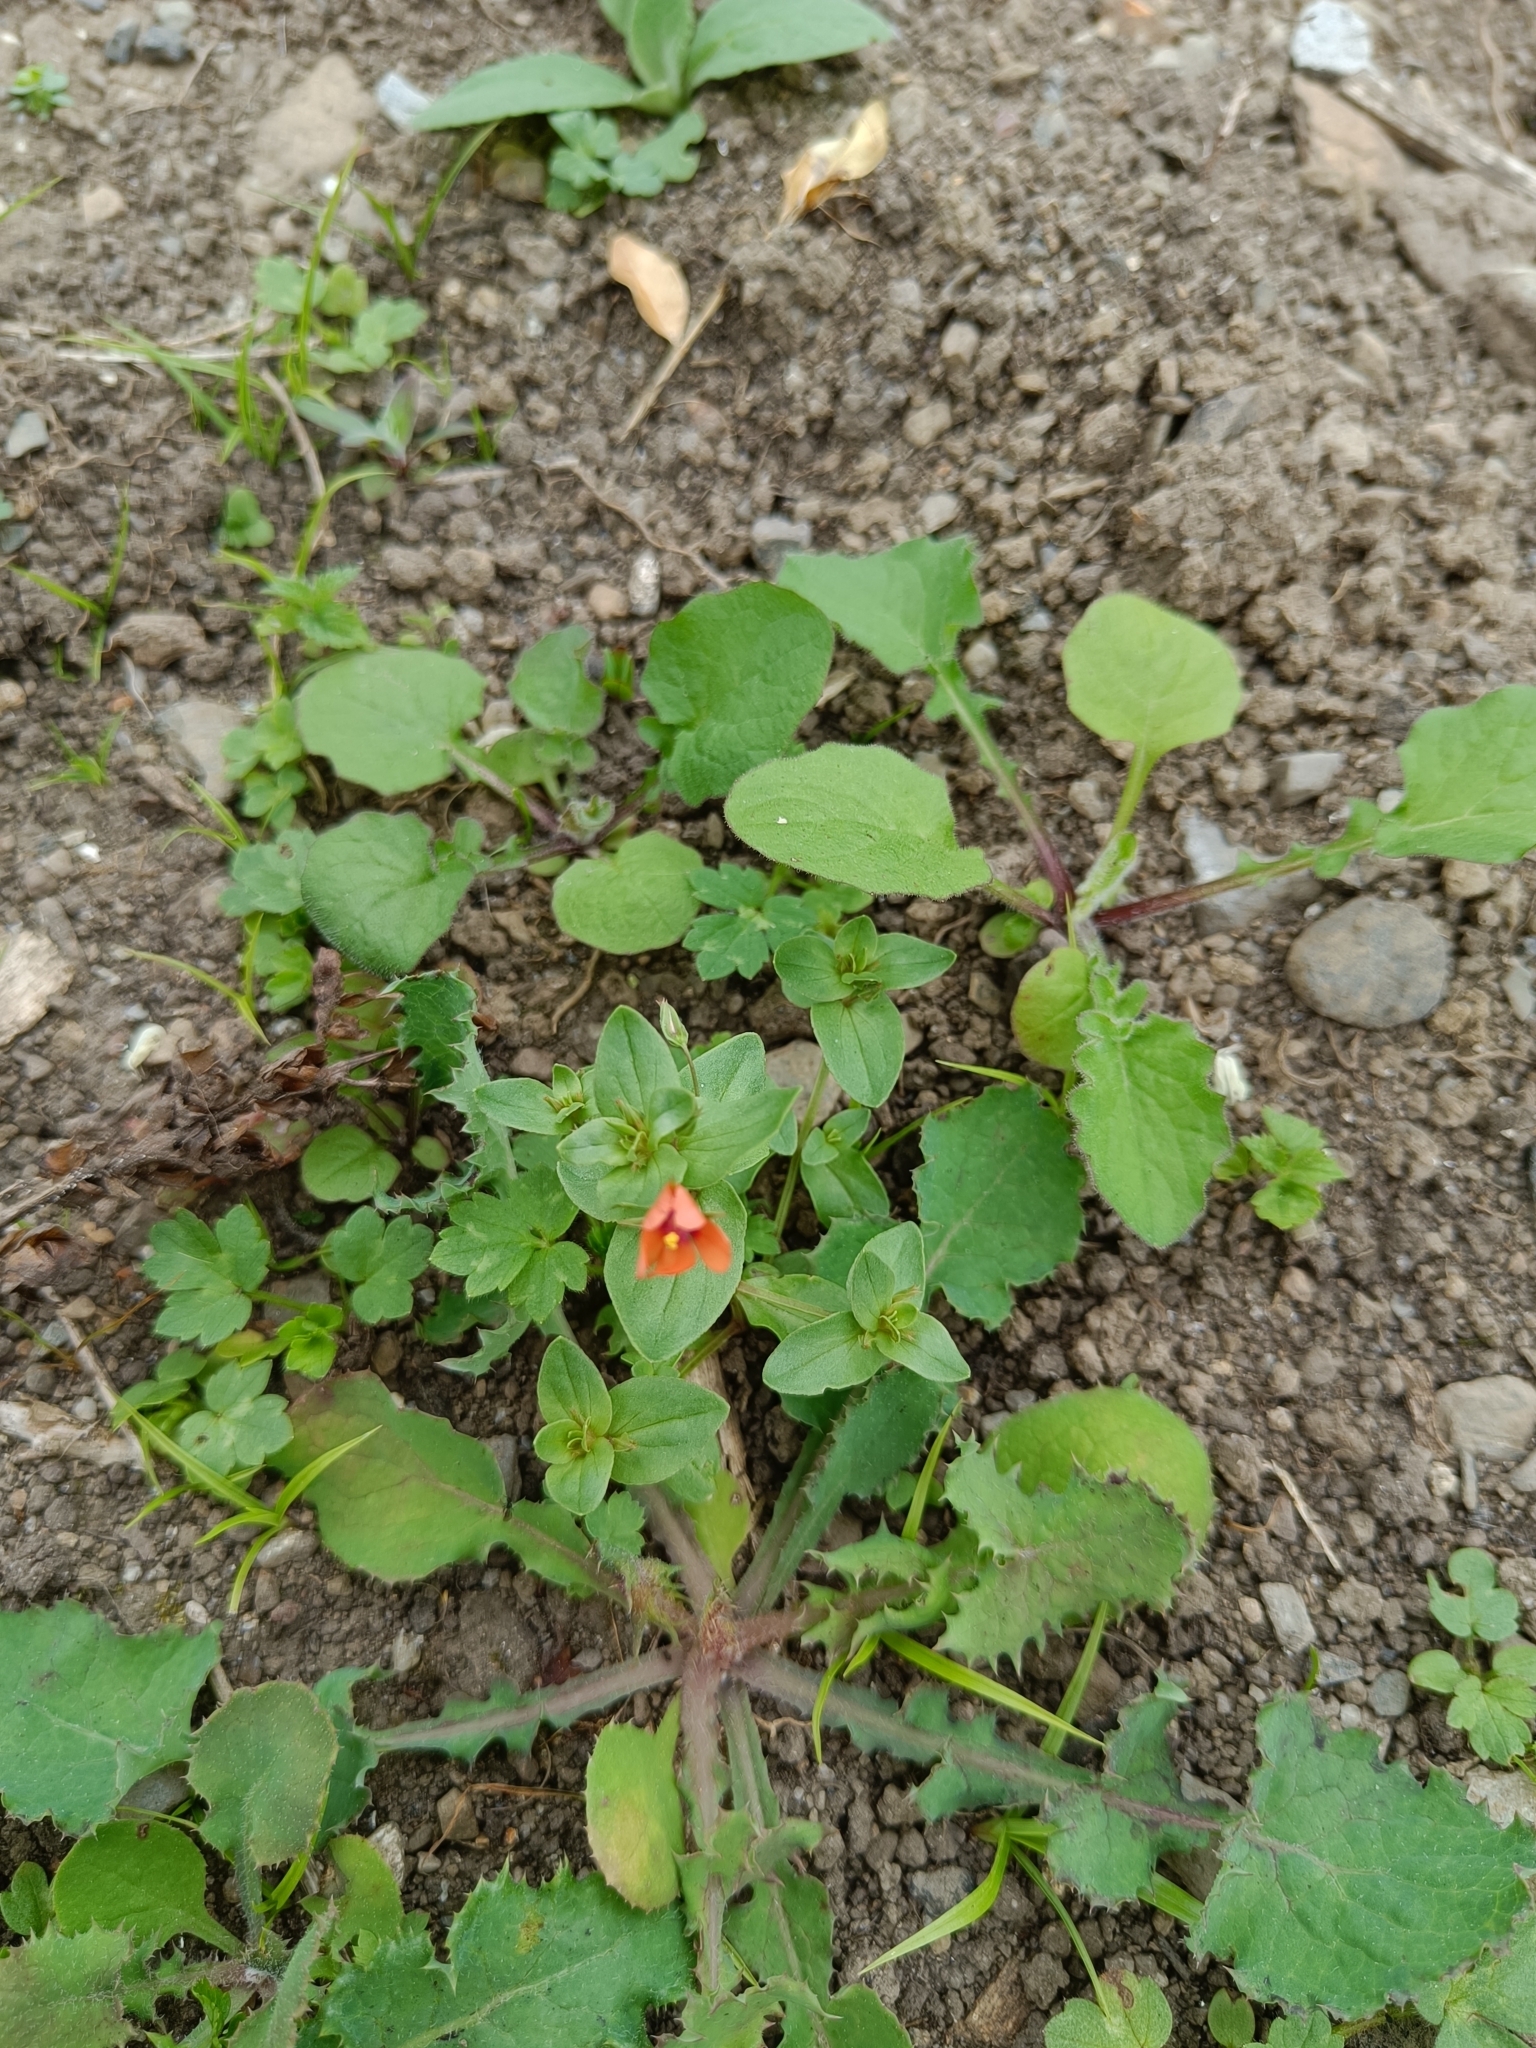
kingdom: Plantae
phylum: Tracheophyta
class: Magnoliopsida
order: Ericales
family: Primulaceae
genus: Lysimachia
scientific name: Lysimachia arvensis
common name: Scarlet pimpernel
